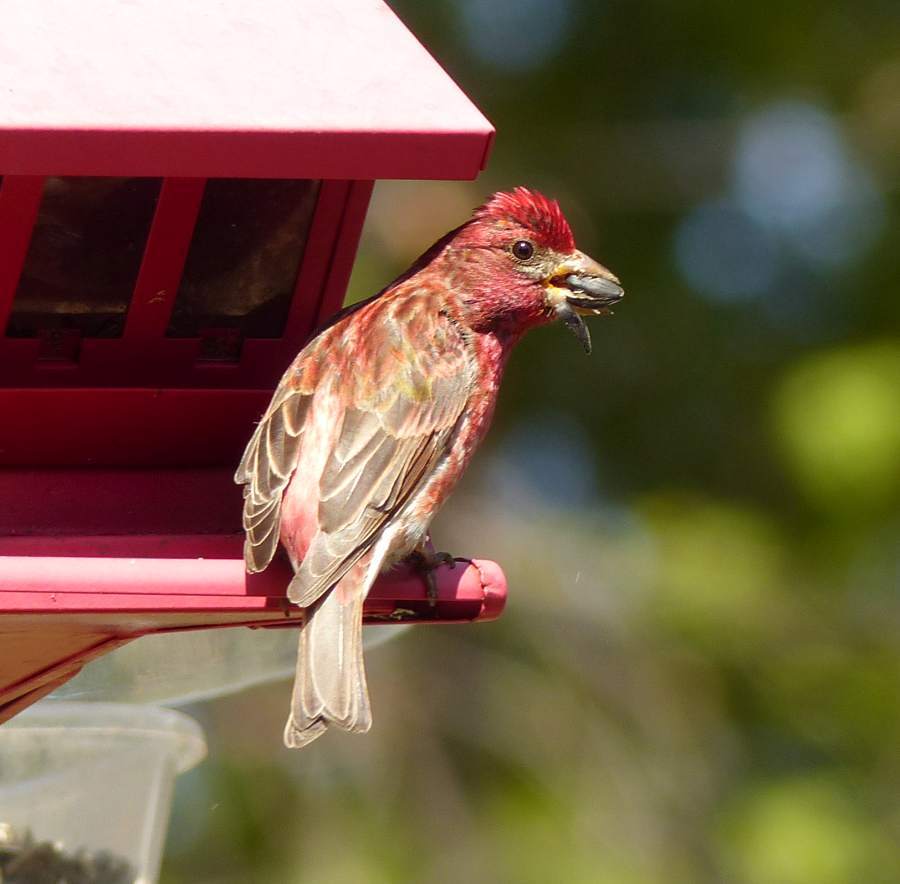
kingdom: Animalia
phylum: Chordata
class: Aves
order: Passeriformes
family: Fringillidae
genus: Haemorhous
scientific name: Haemorhous purpureus
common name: Purple finch
